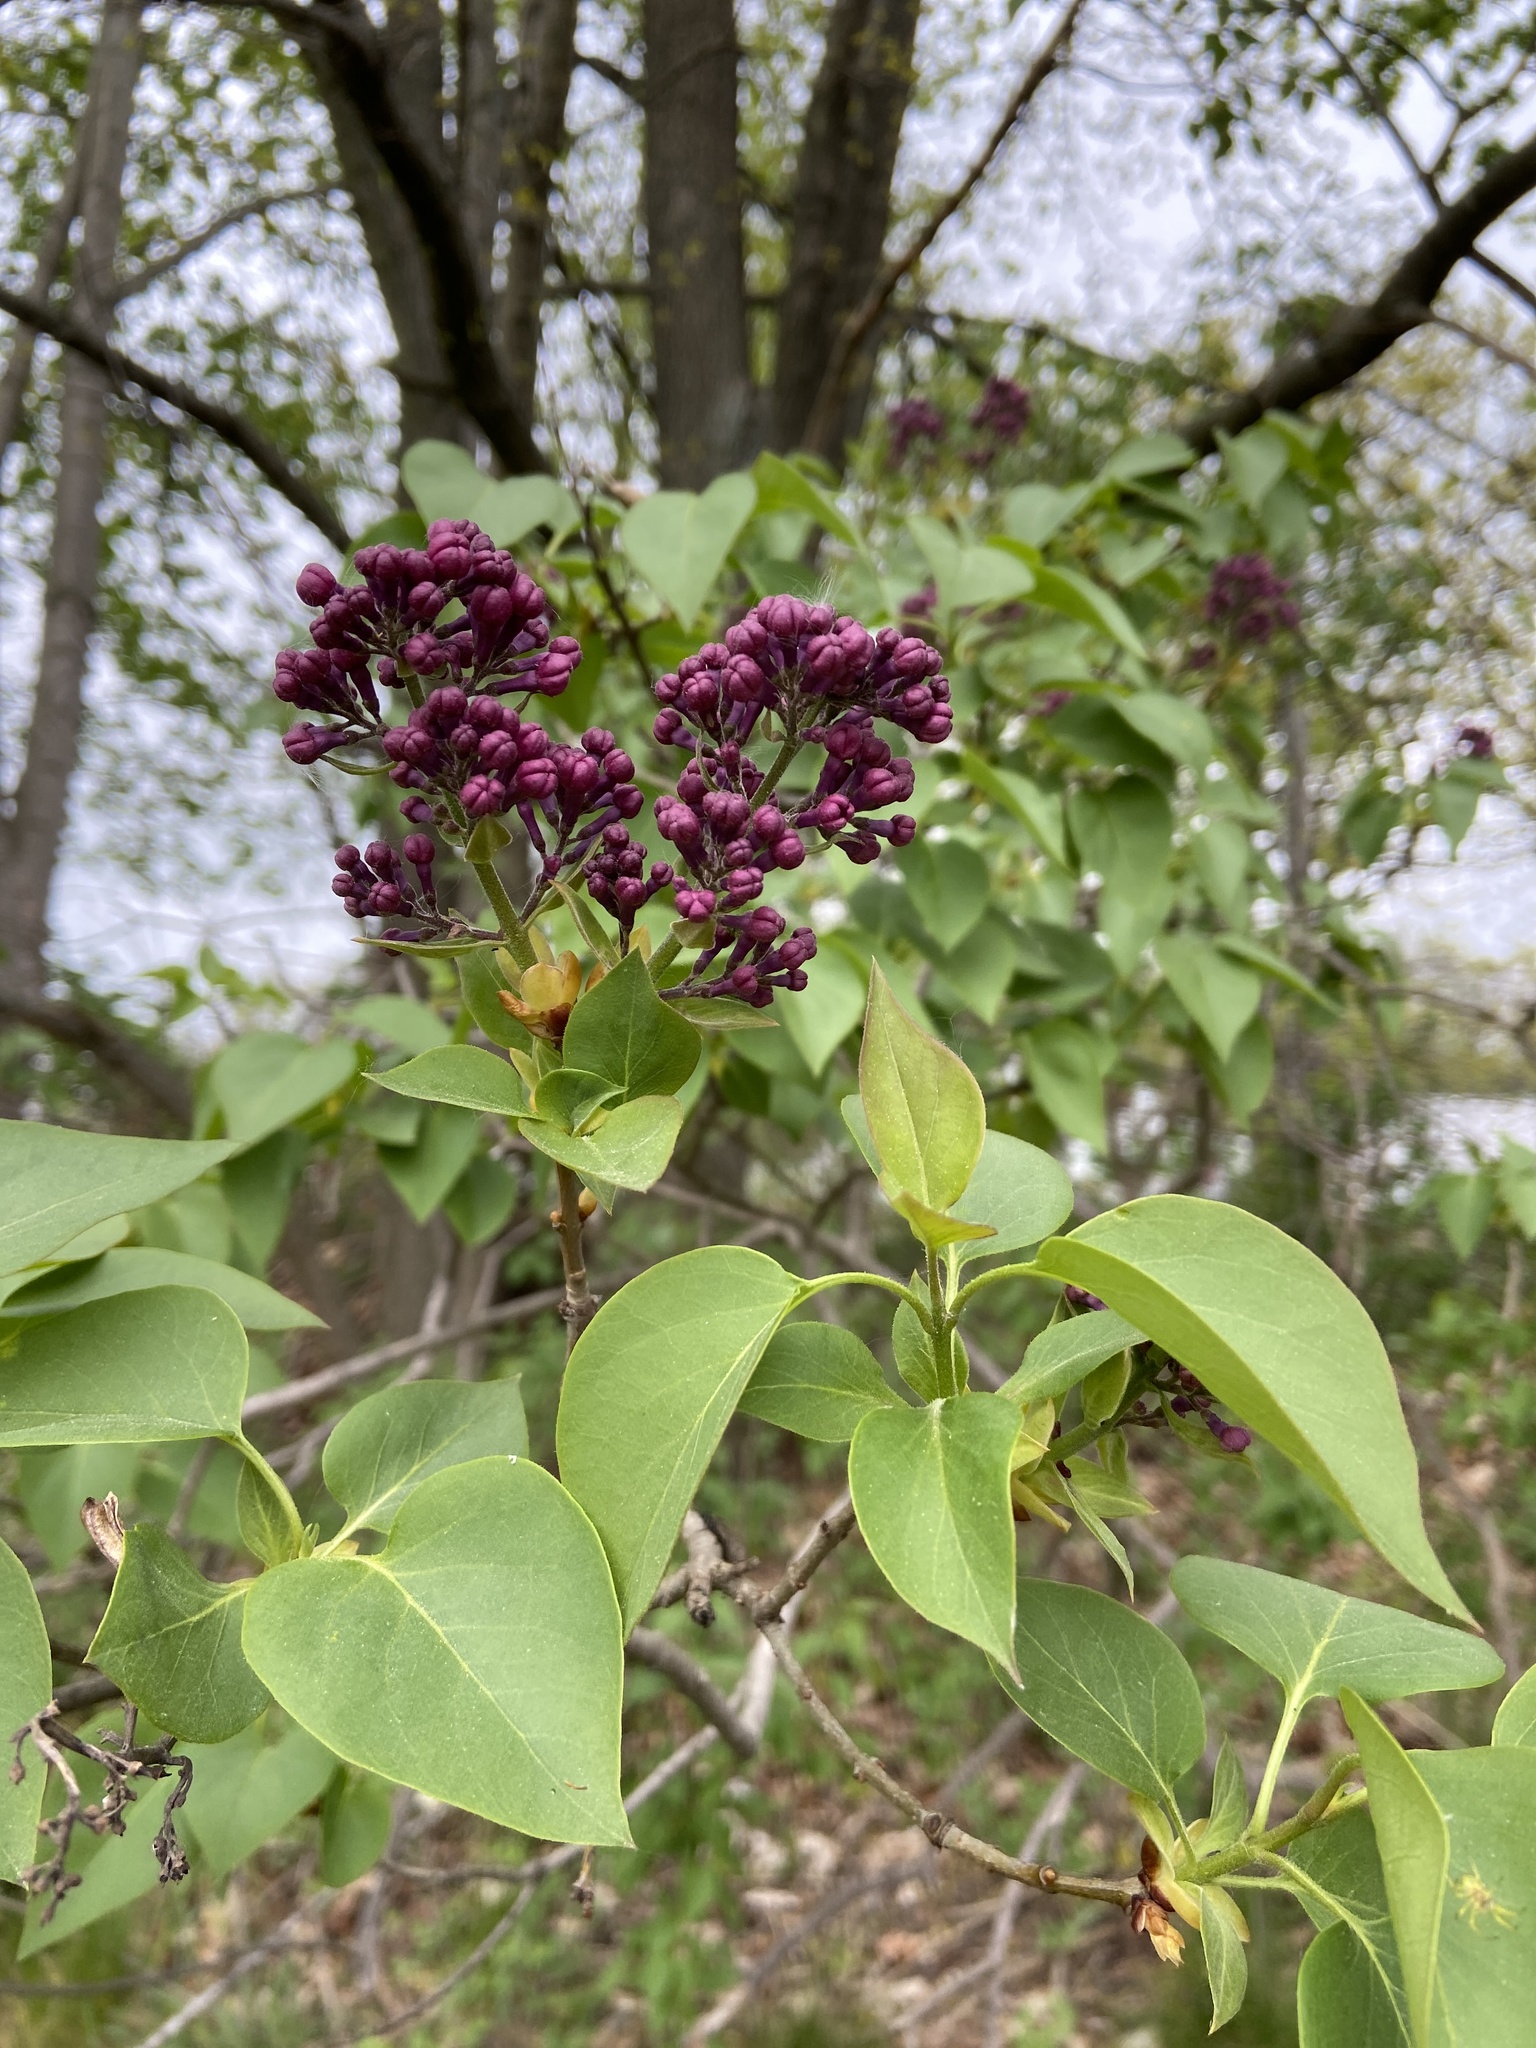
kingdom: Plantae
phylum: Tracheophyta
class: Magnoliopsida
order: Lamiales
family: Oleaceae
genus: Syringa
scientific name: Syringa vulgaris
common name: Common lilac
